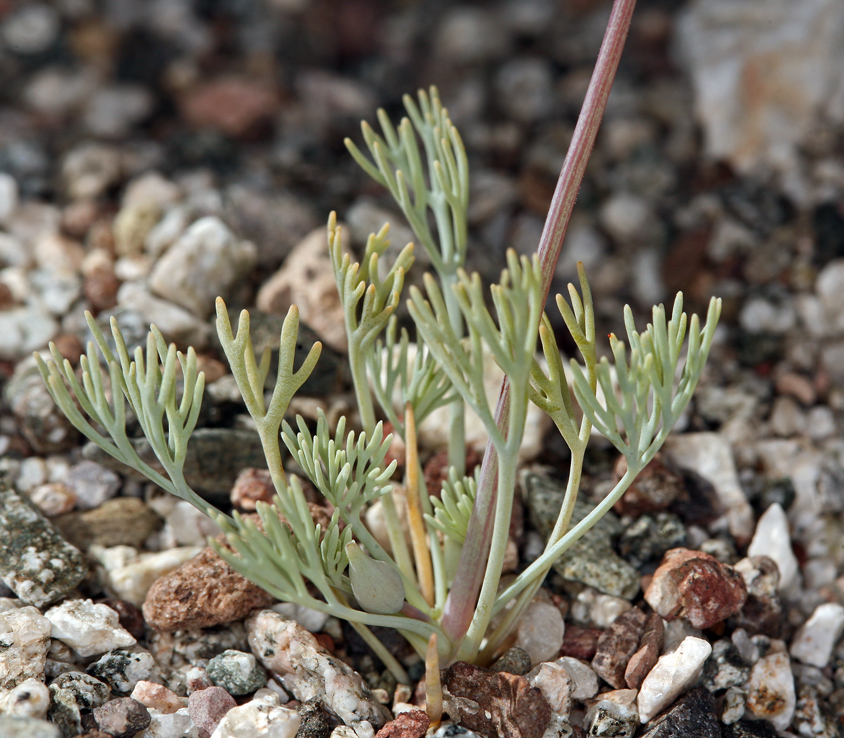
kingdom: Plantae
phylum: Tracheophyta
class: Magnoliopsida
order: Ranunculales
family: Papaveraceae
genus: Eschscholzia
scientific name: Eschscholzia glyptosperma
